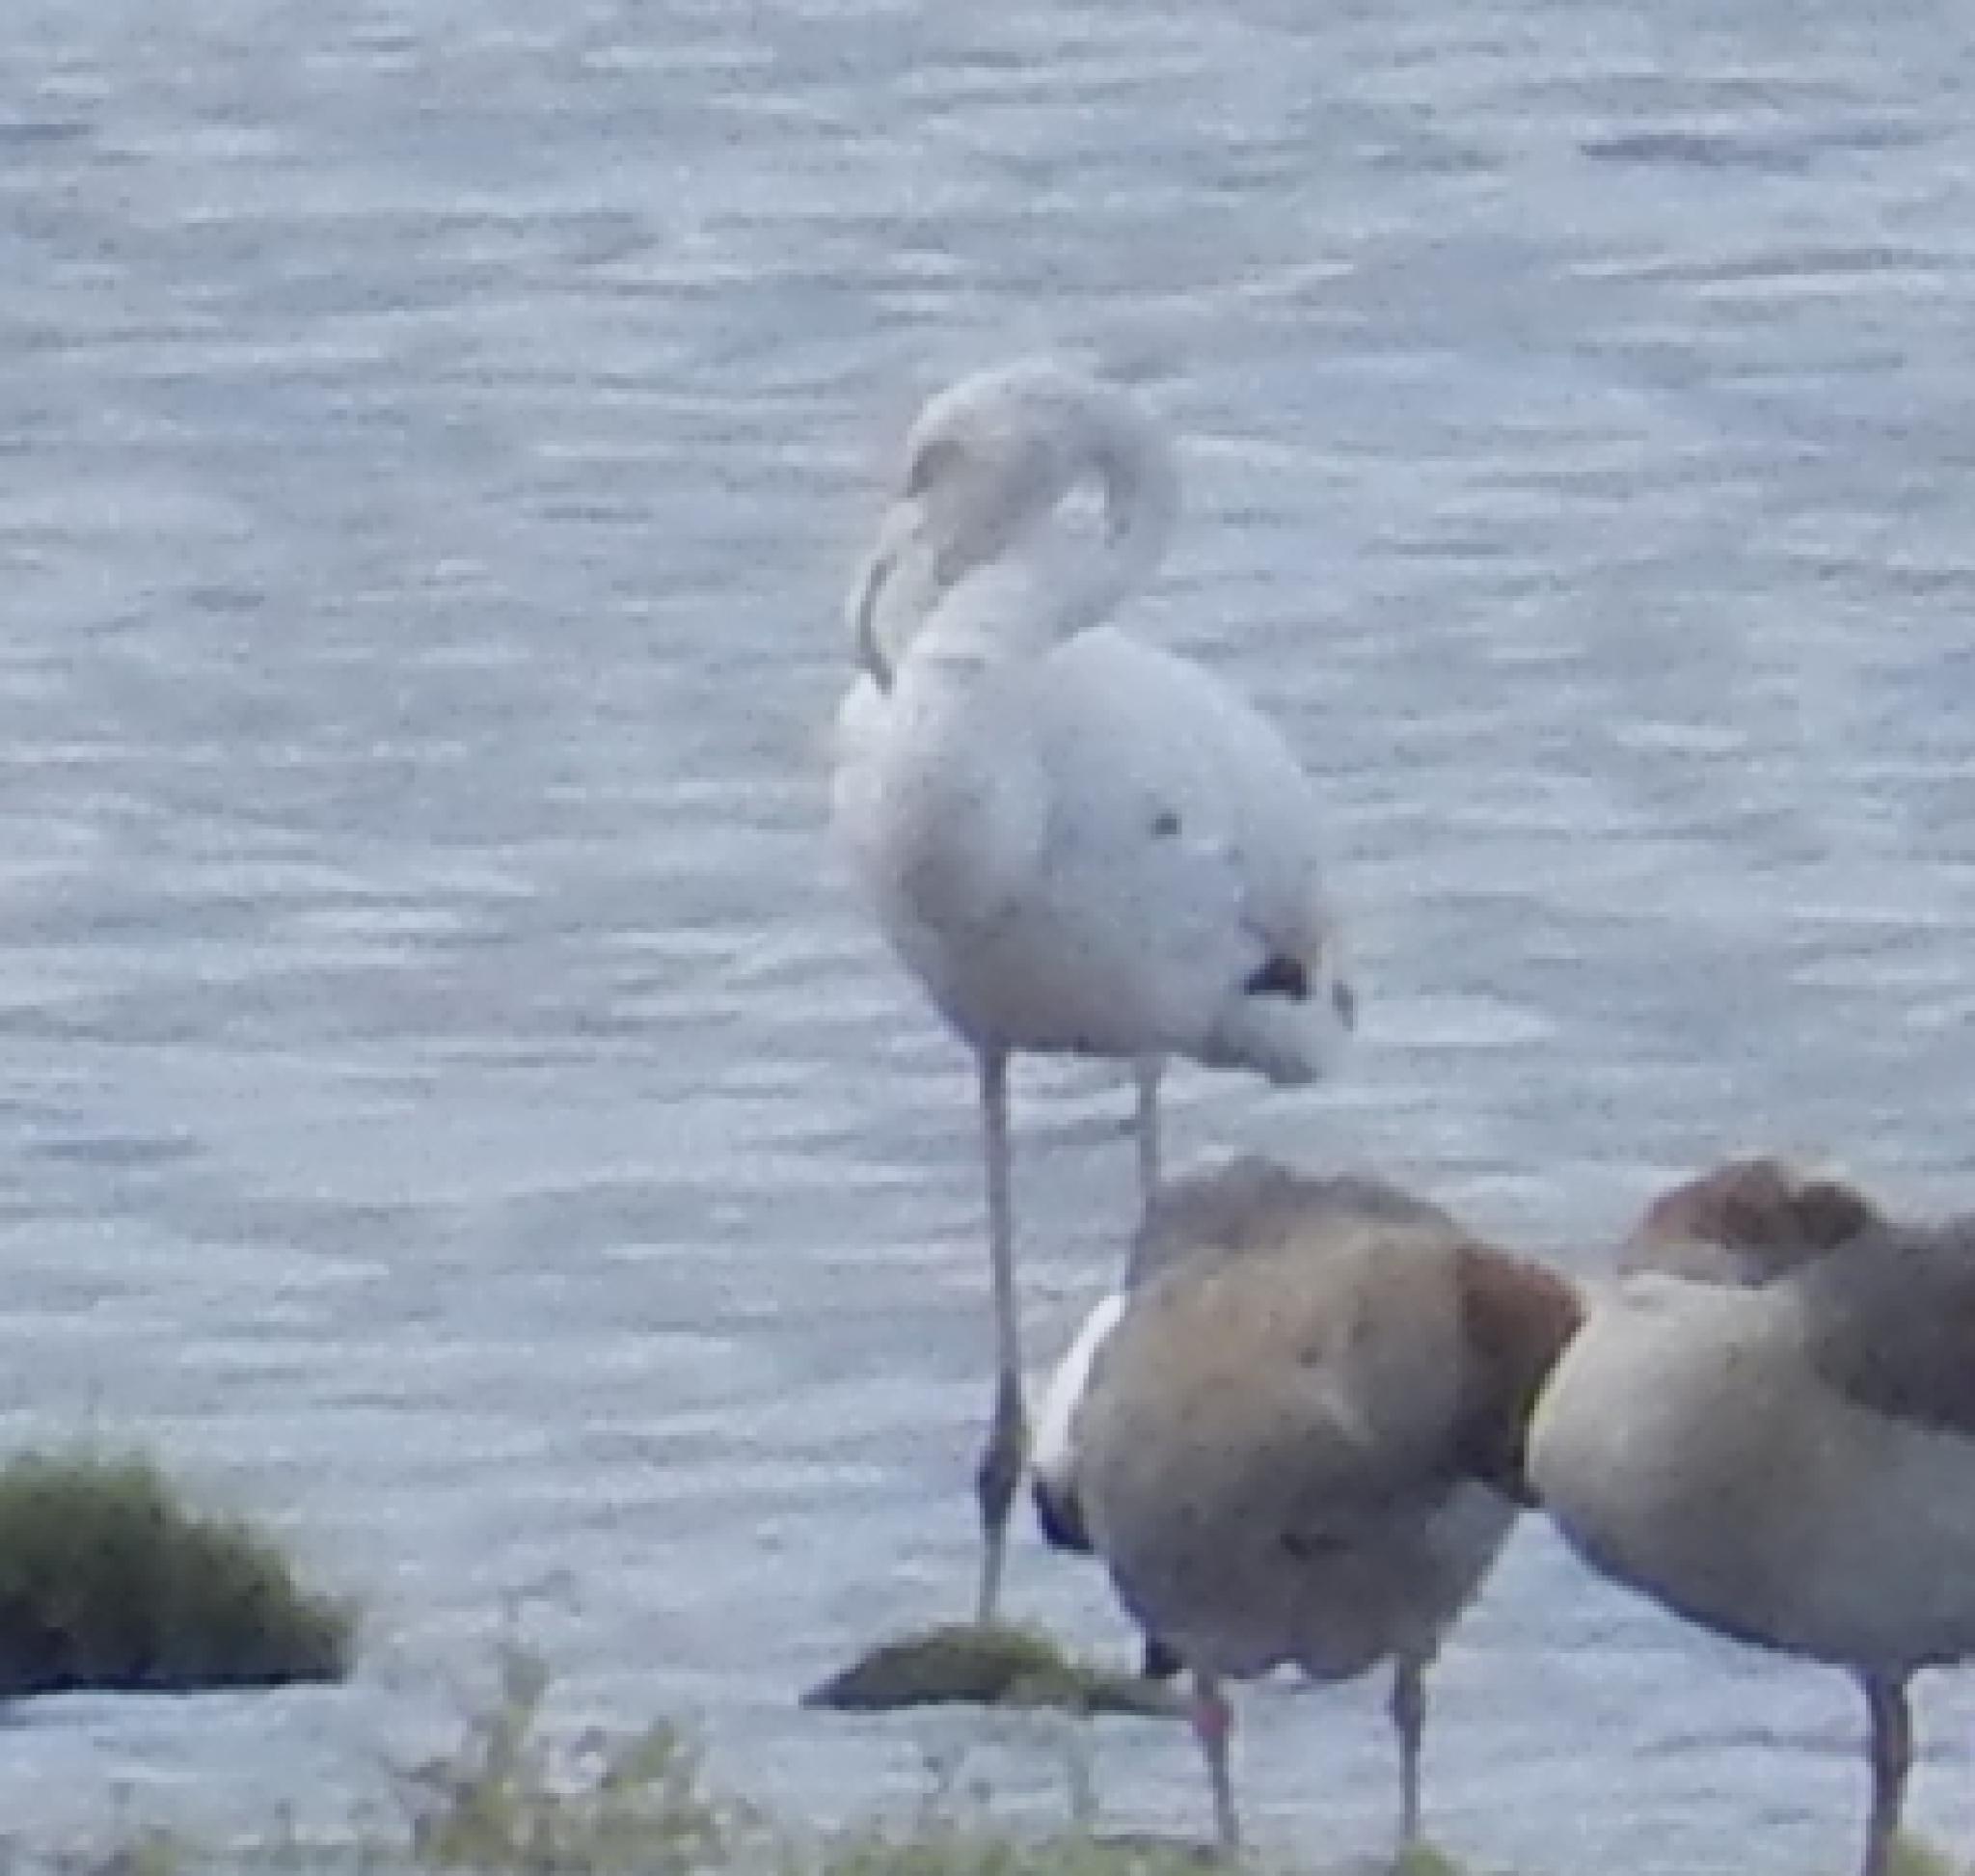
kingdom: Animalia
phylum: Chordata
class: Aves
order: Phoenicopteriformes
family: Phoenicopteridae
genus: Phoenicopterus
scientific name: Phoenicopterus roseus
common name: Greater flamingo
